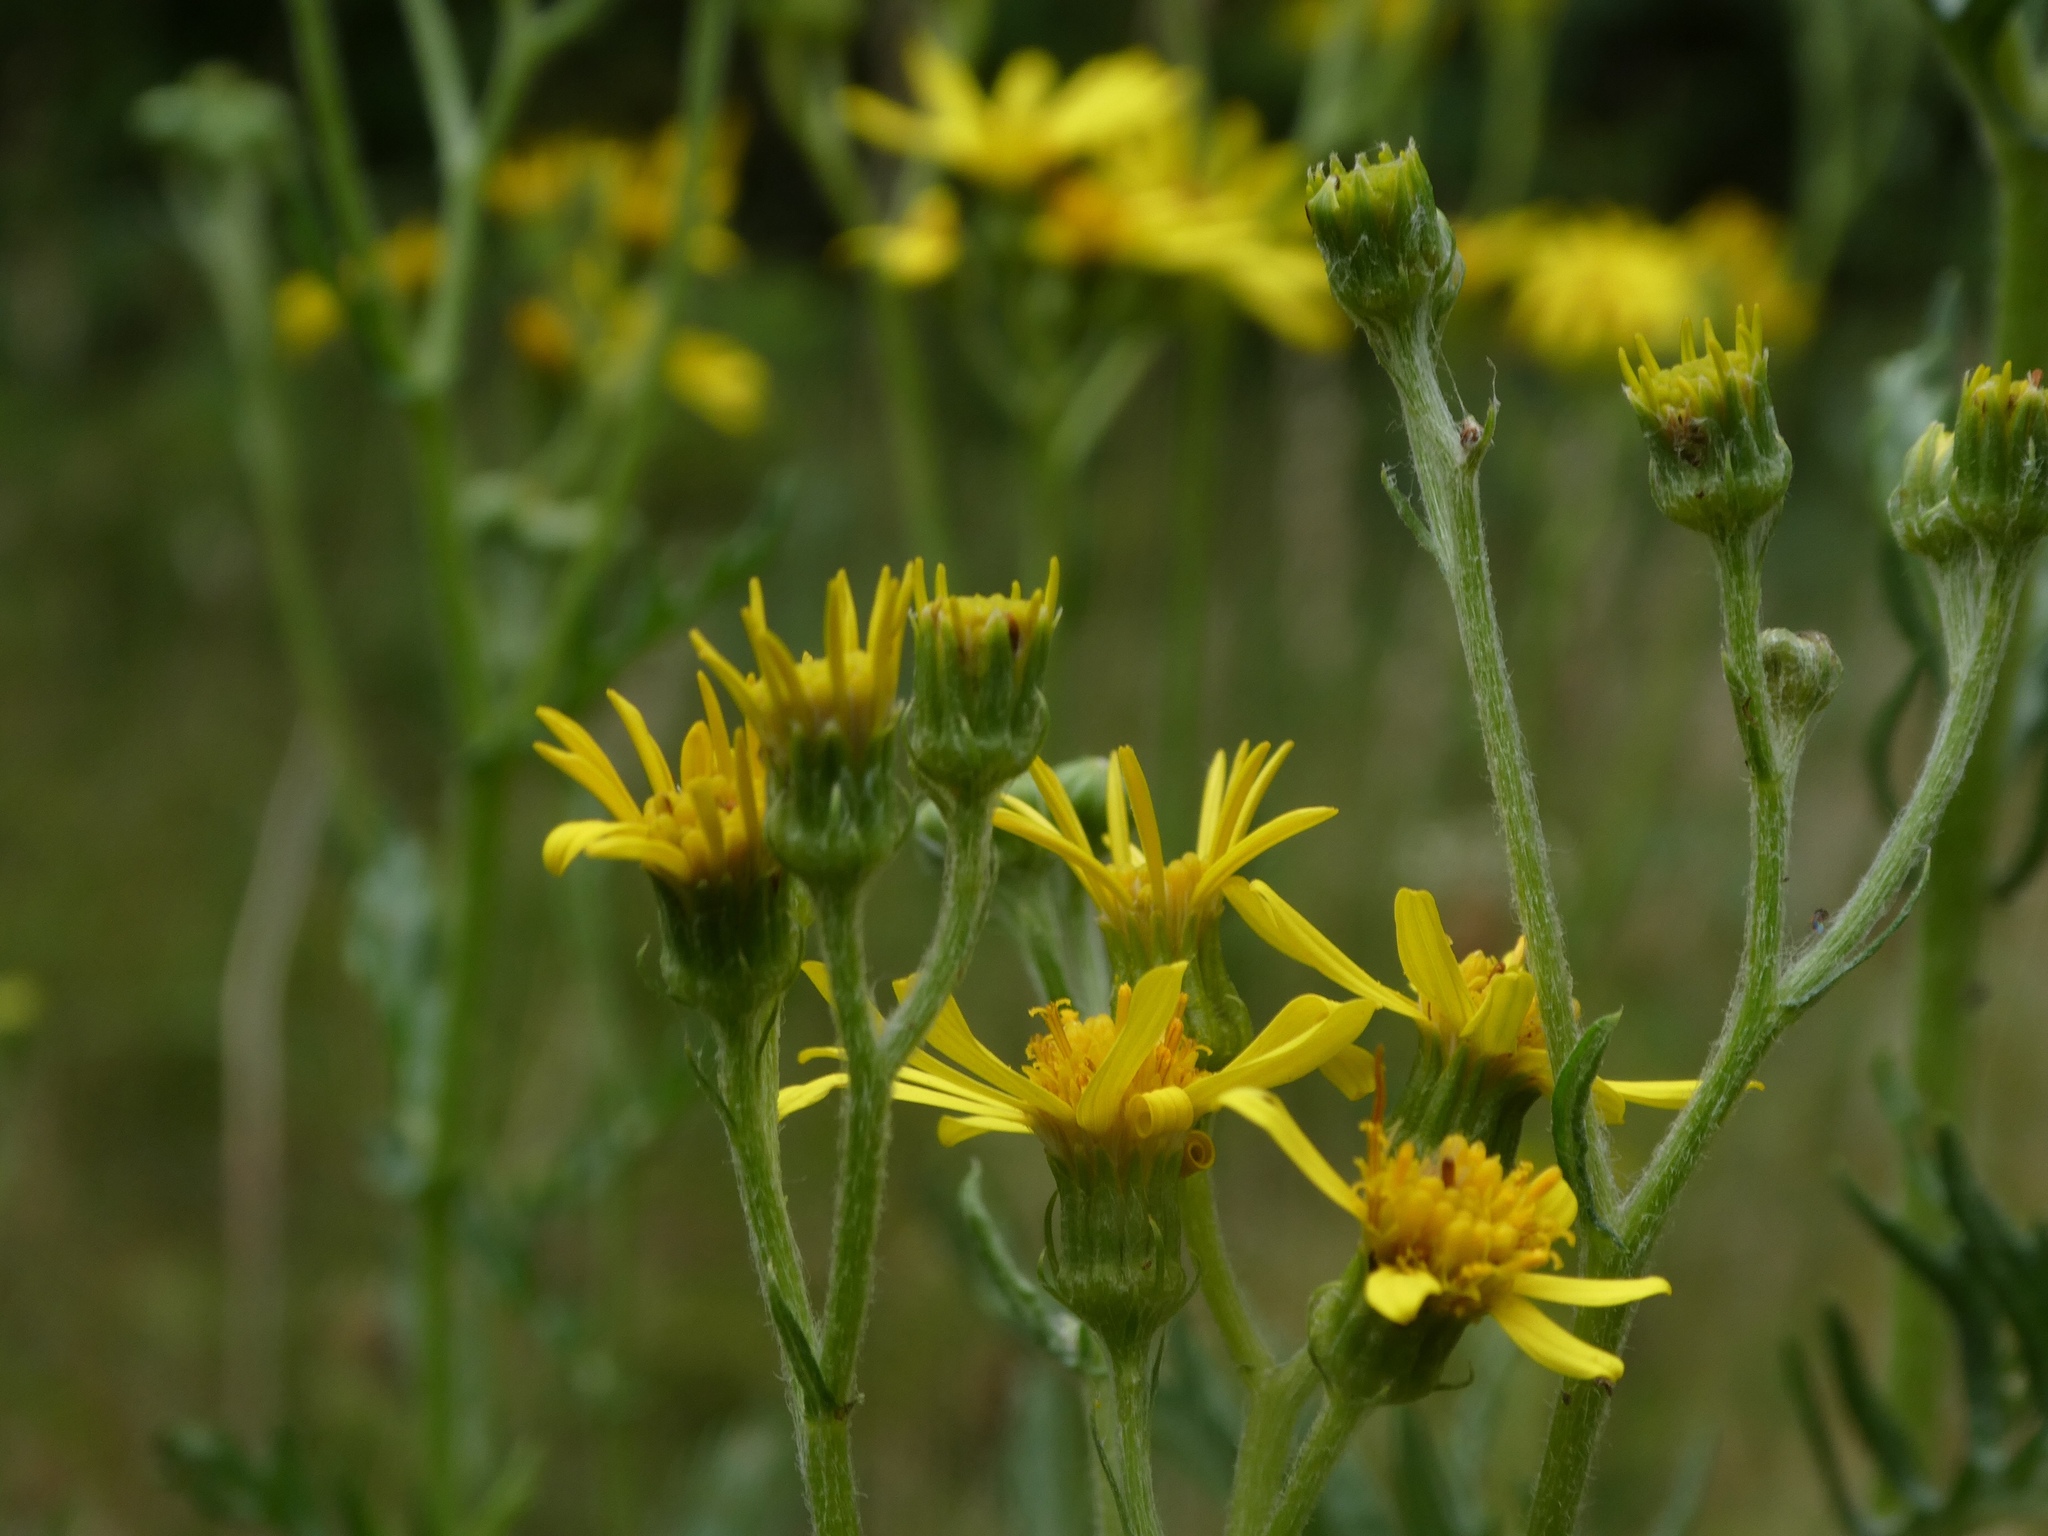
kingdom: Plantae
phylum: Tracheophyta
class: Magnoliopsida
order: Asterales
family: Asteraceae
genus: Jacobaea
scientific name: Jacobaea erucifolia
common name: Hoary ragwort
